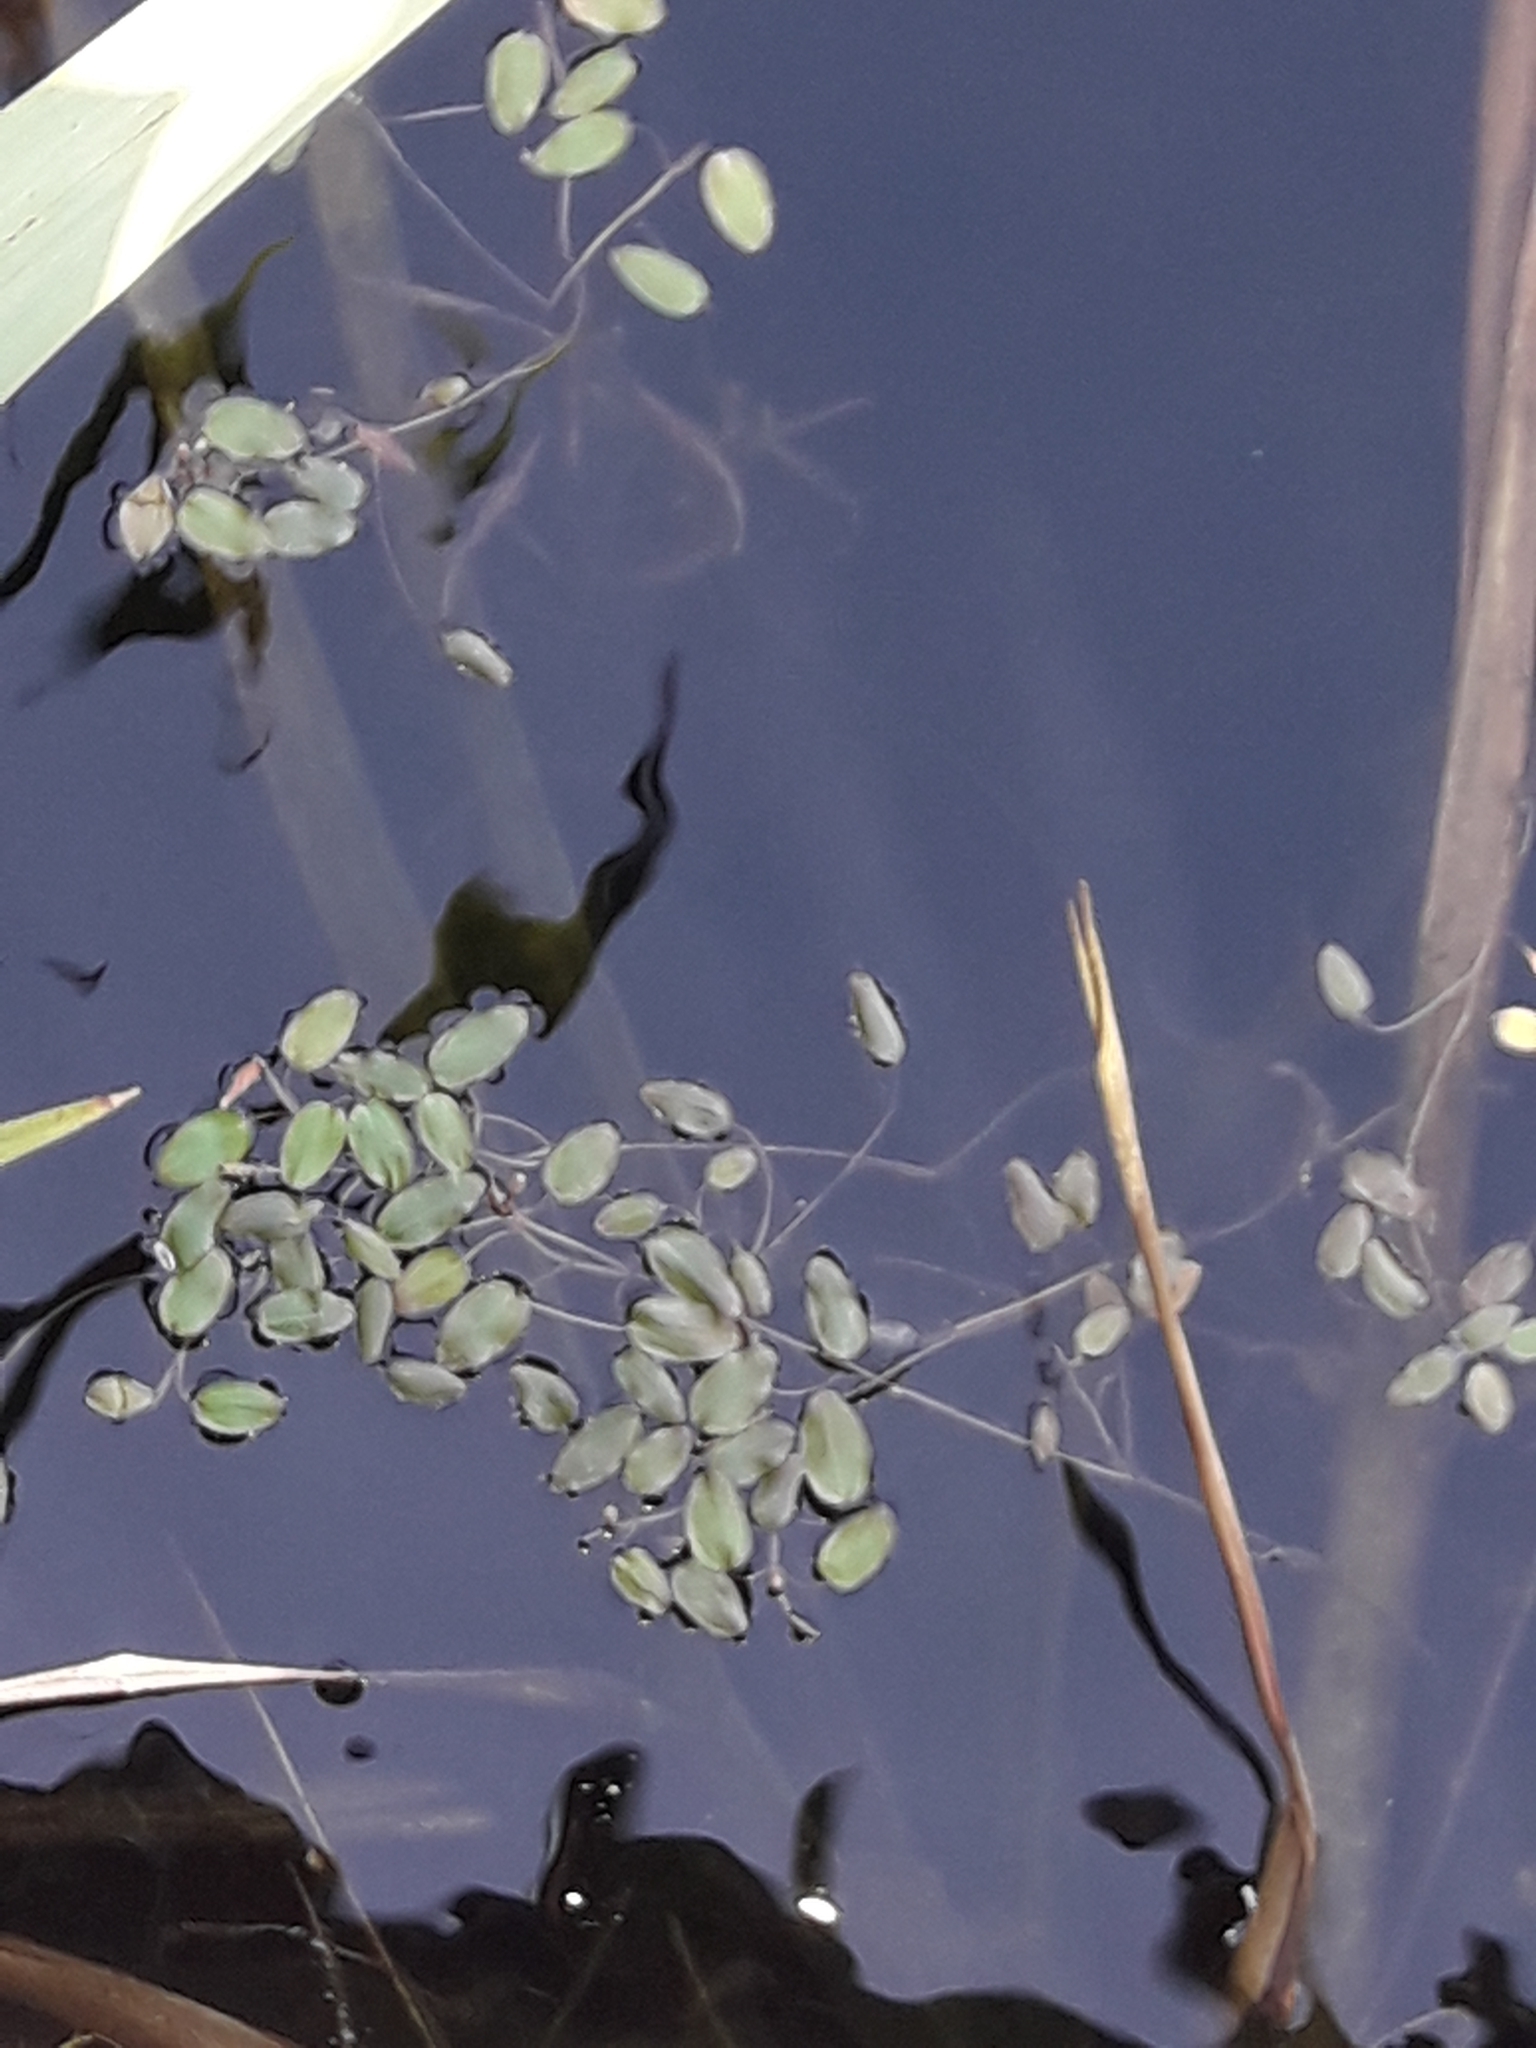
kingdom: Plantae
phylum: Tracheophyta
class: Liliopsida
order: Alismatales
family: Potamogetonaceae
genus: Potamogeton
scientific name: Potamogeton cheesemanii
